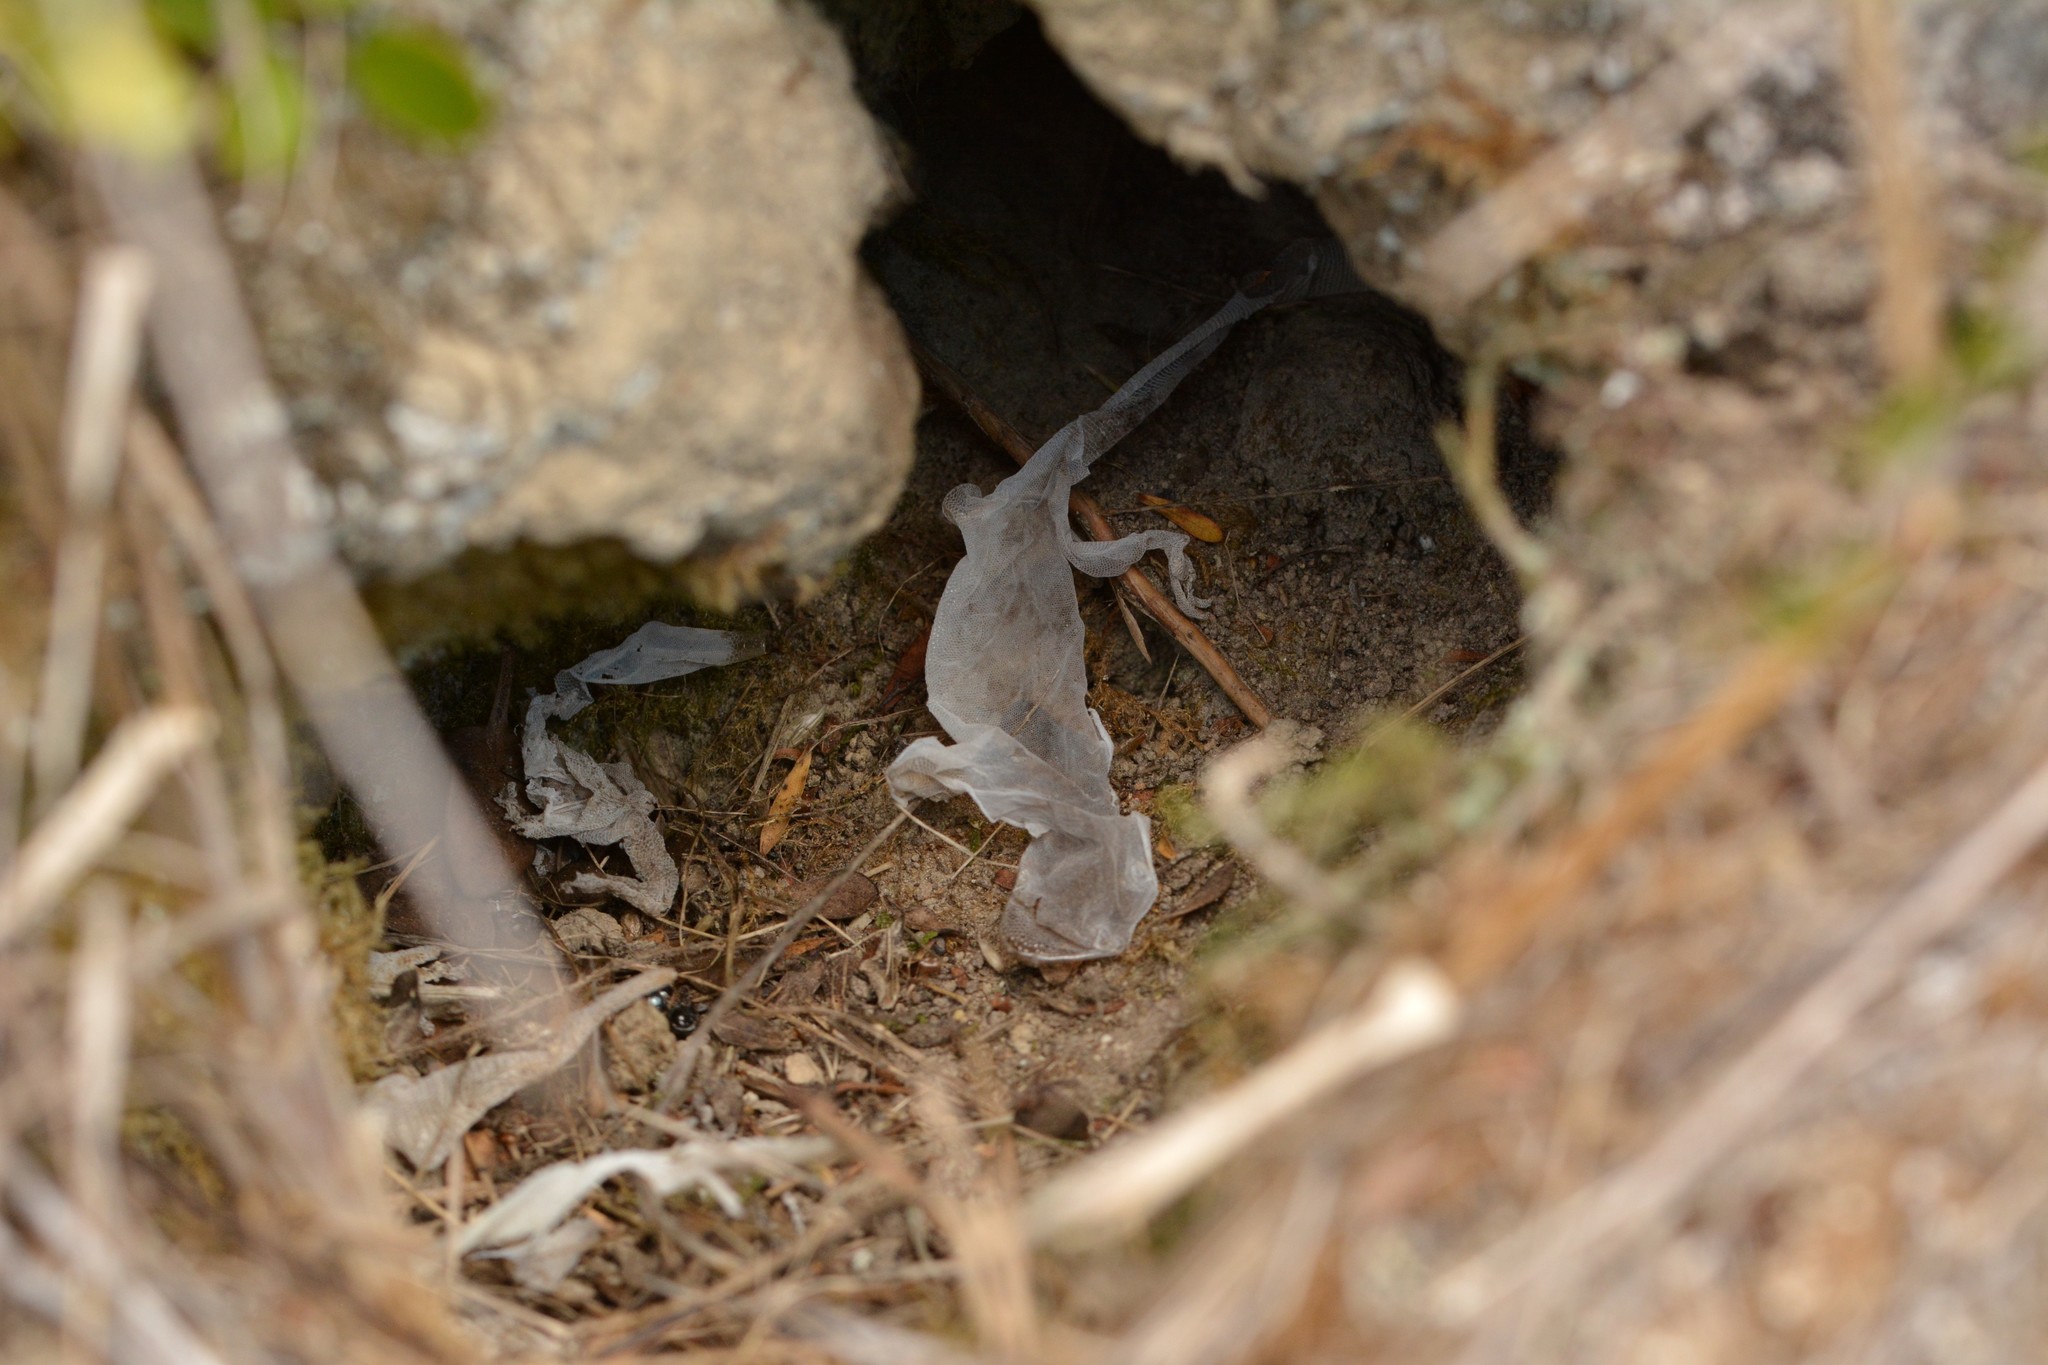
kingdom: Animalia
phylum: Chordata
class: Squamata
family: Diplodactylidae
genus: Woodworthia
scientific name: Woodworthia maculata
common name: Raukawa gecko
